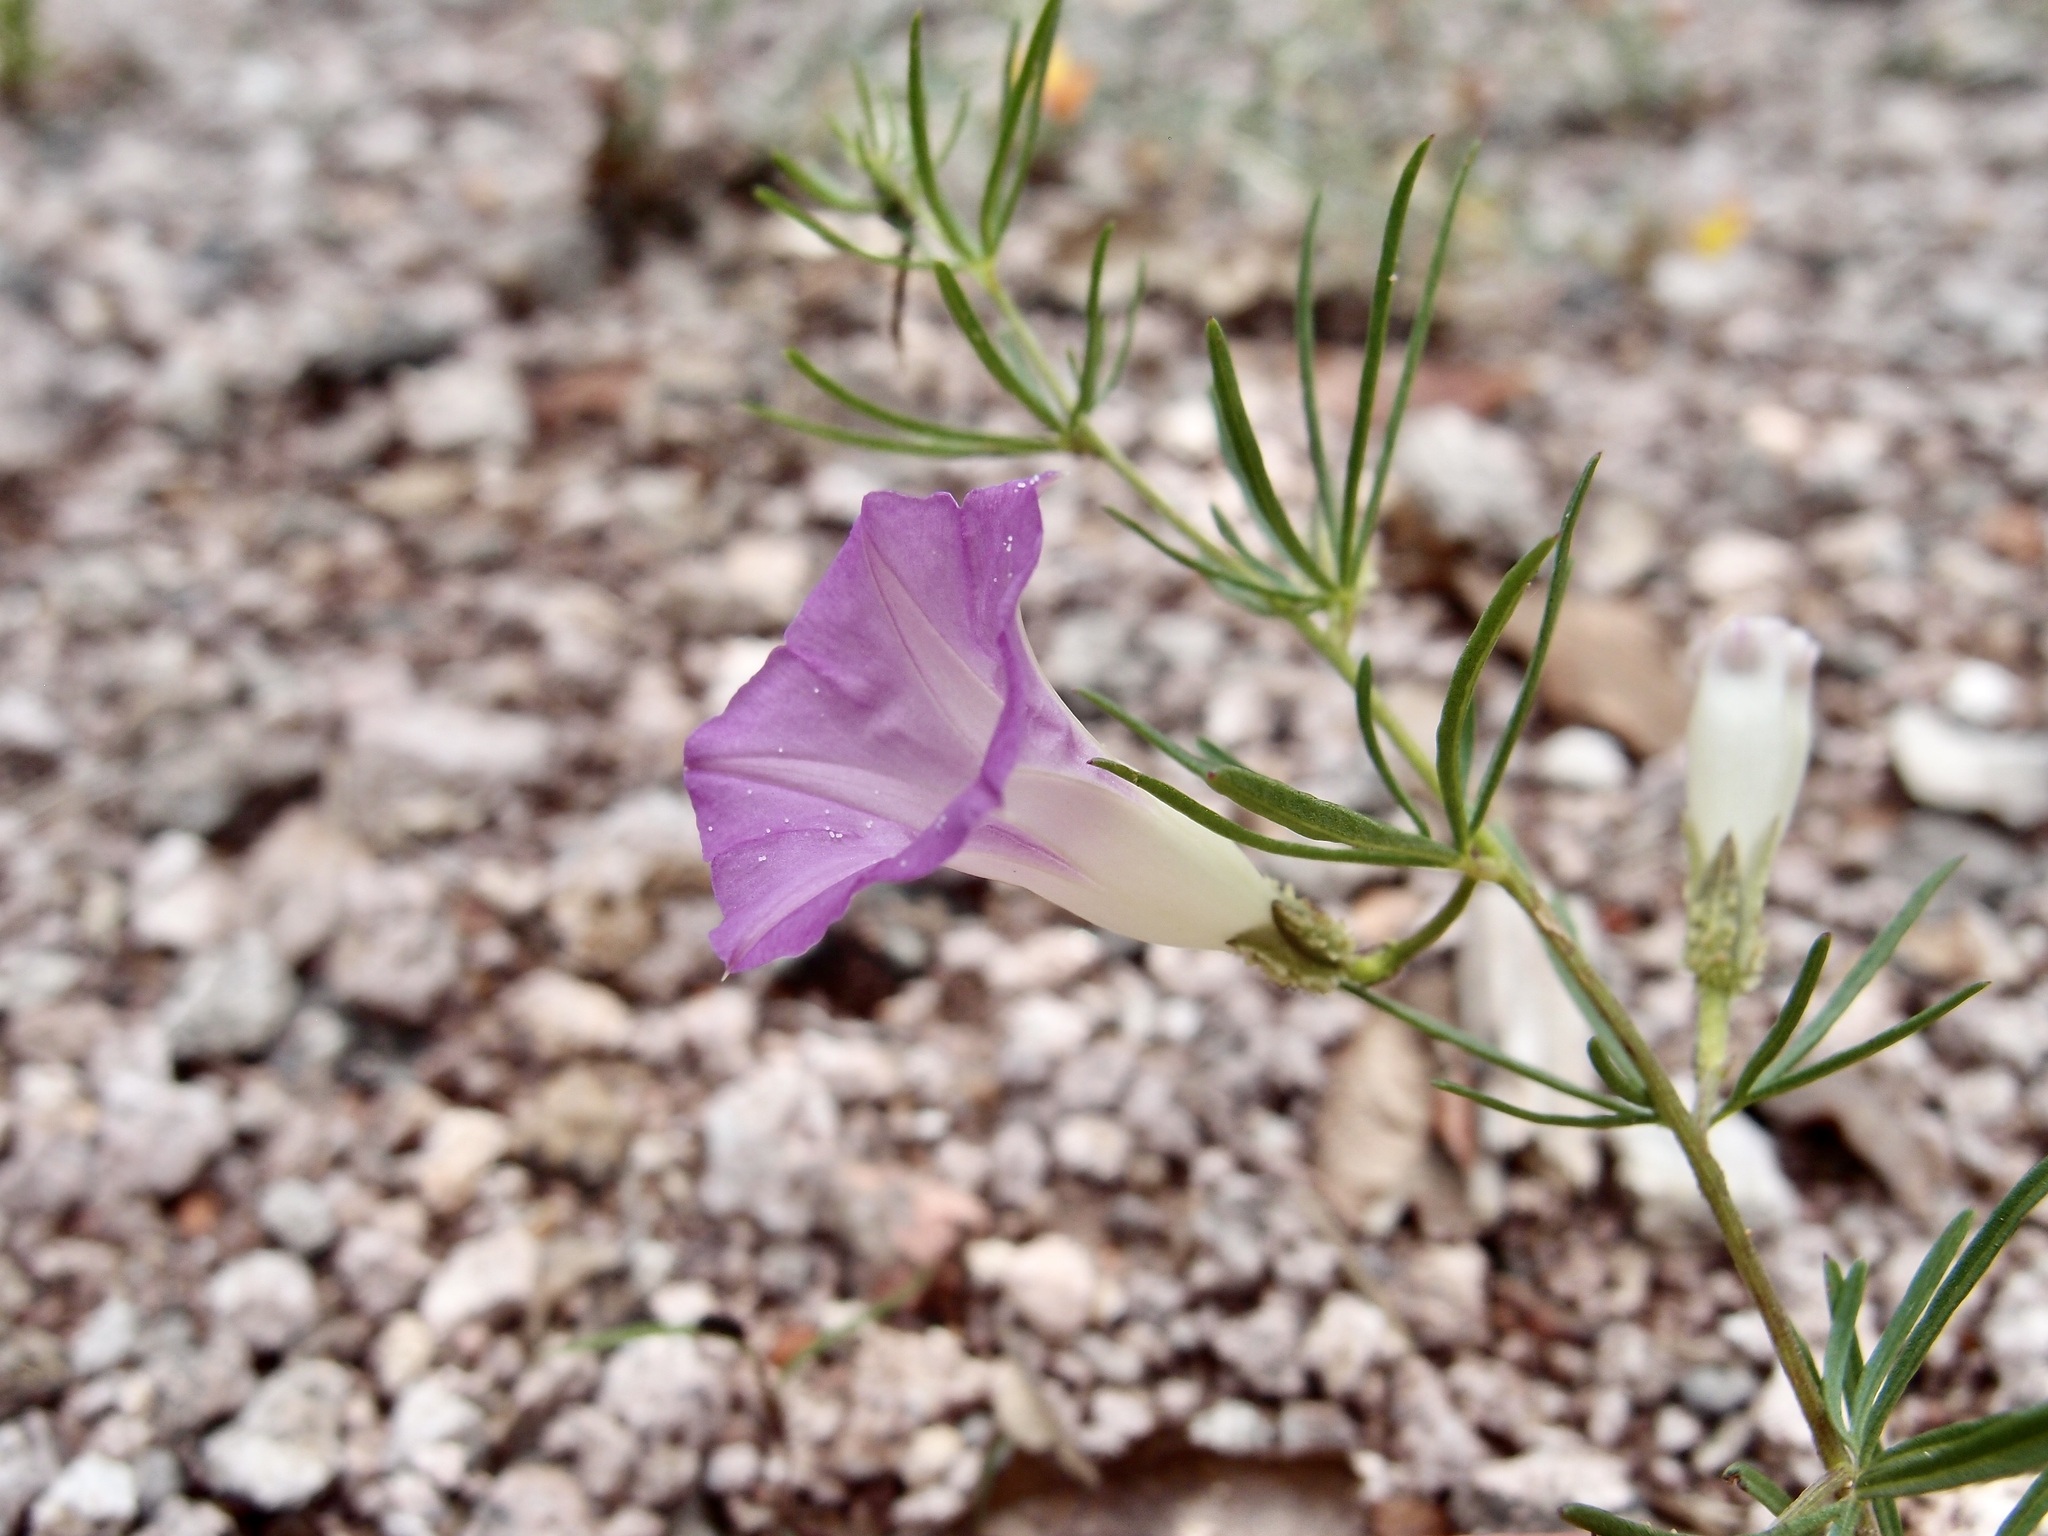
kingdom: Plantae
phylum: Tracheophyta
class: Magnoliopsida
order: Solanales
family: Convolvulaceae
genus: Ipomoea
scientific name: Ipomoea plummerae
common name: Plummer's morning-glory
